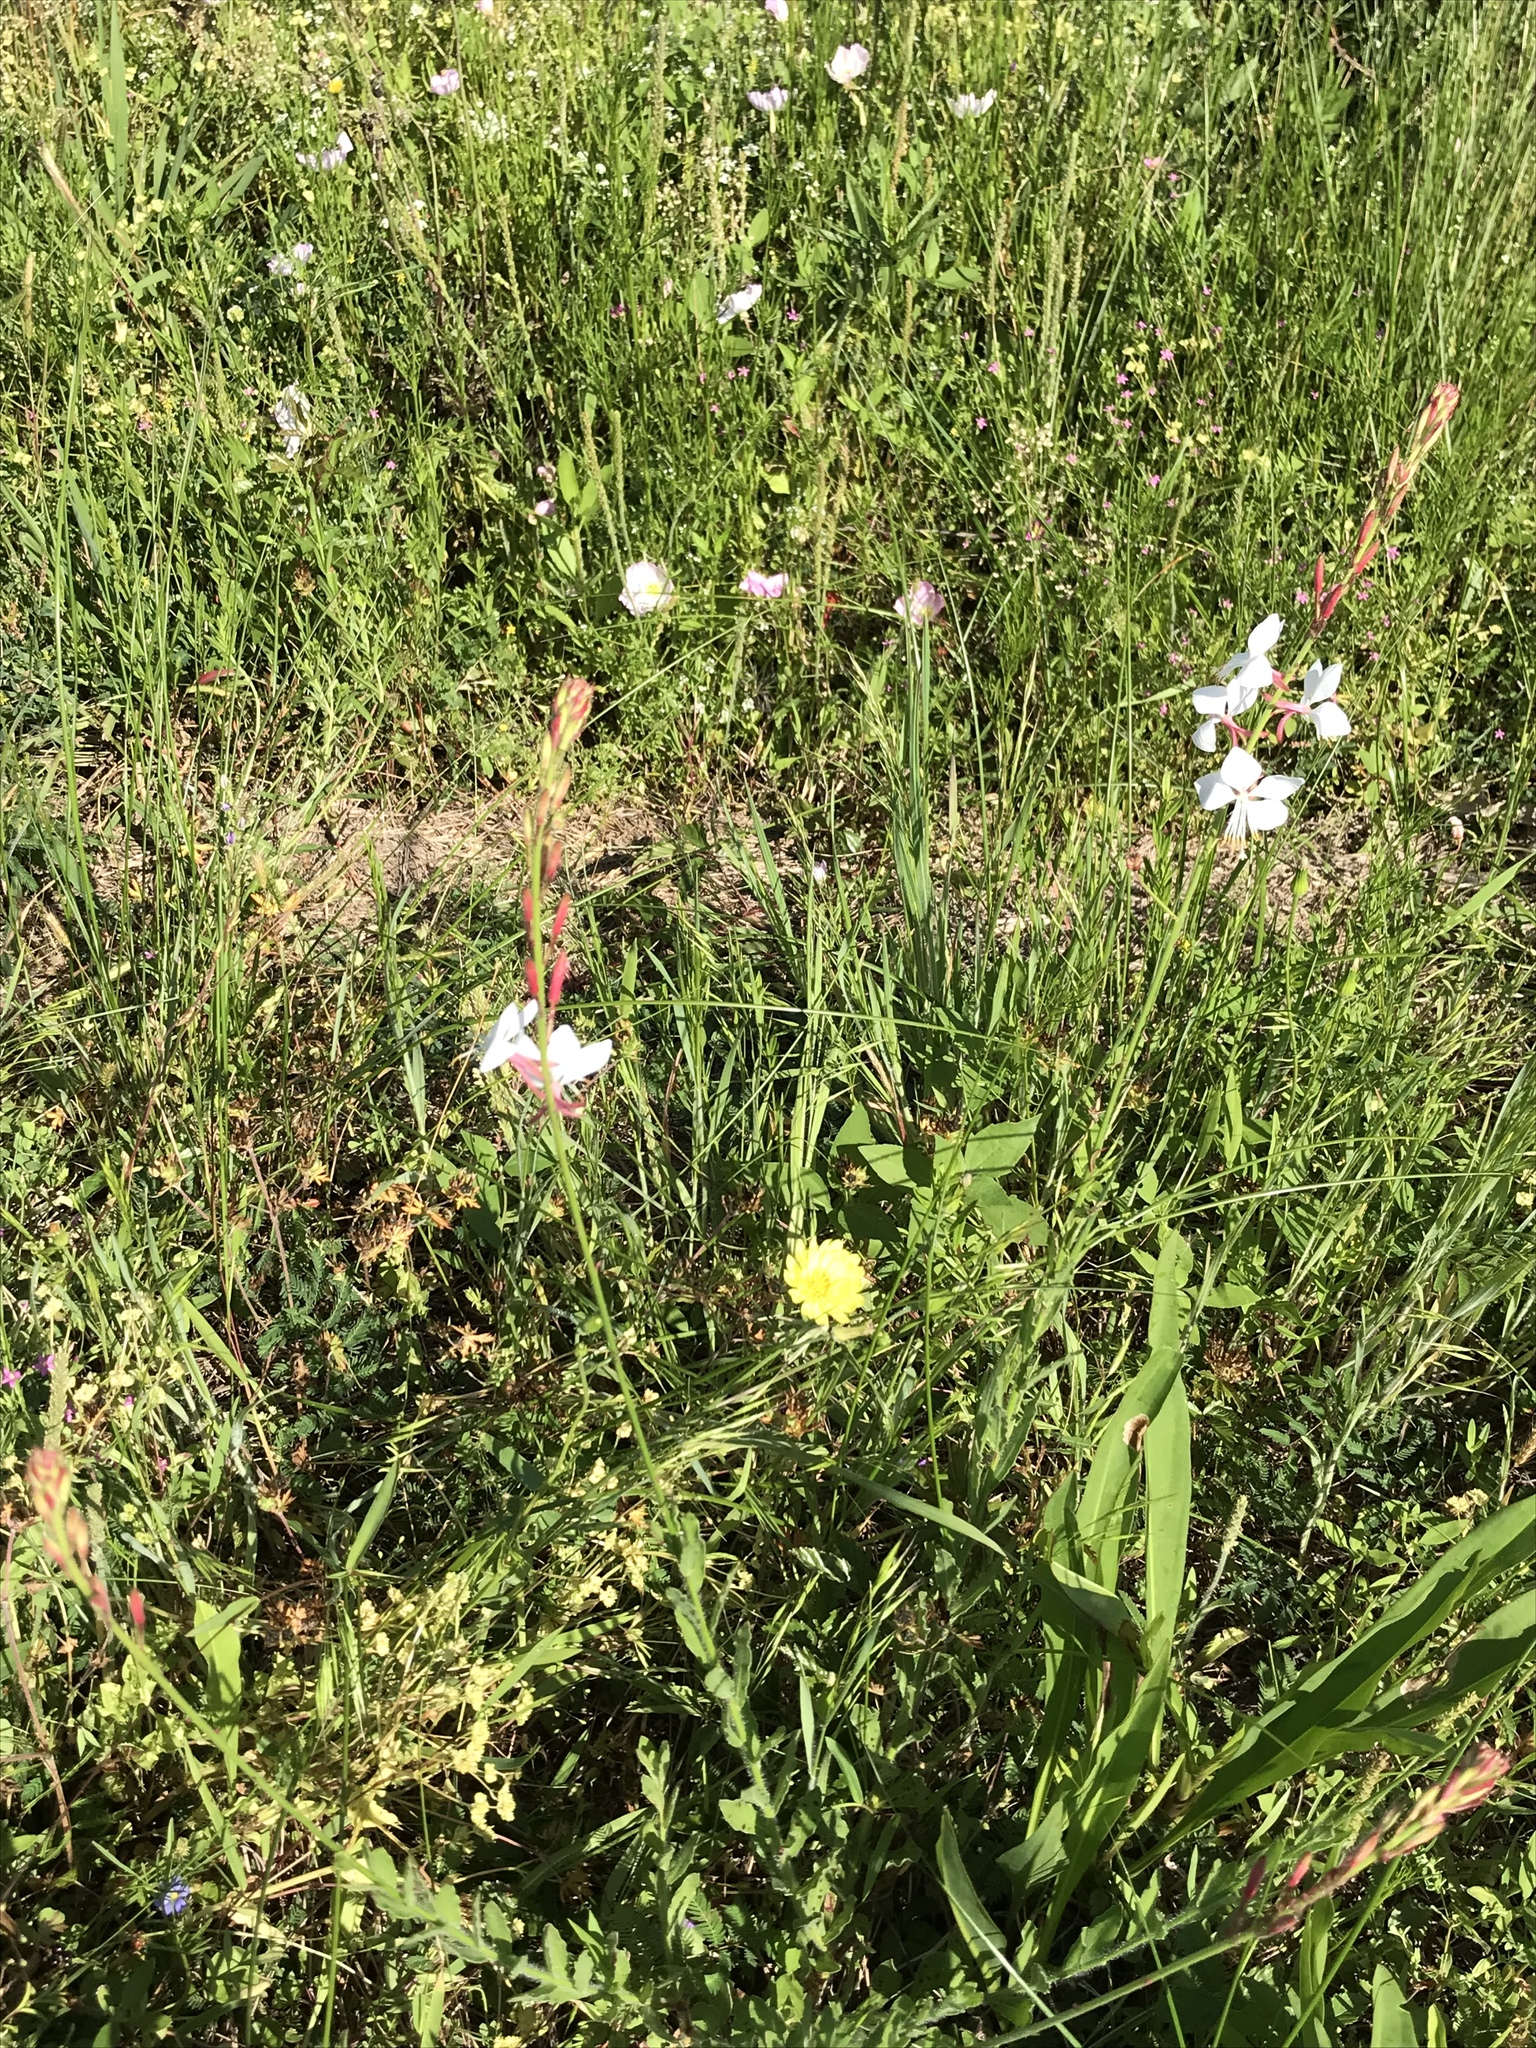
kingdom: Plantae
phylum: Tracheophyta
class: Magnoliopsida
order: Myrtales
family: Onagraceae
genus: Oenothera
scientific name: Oenothera lindheimeri
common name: Lindheimer's beeblossom
